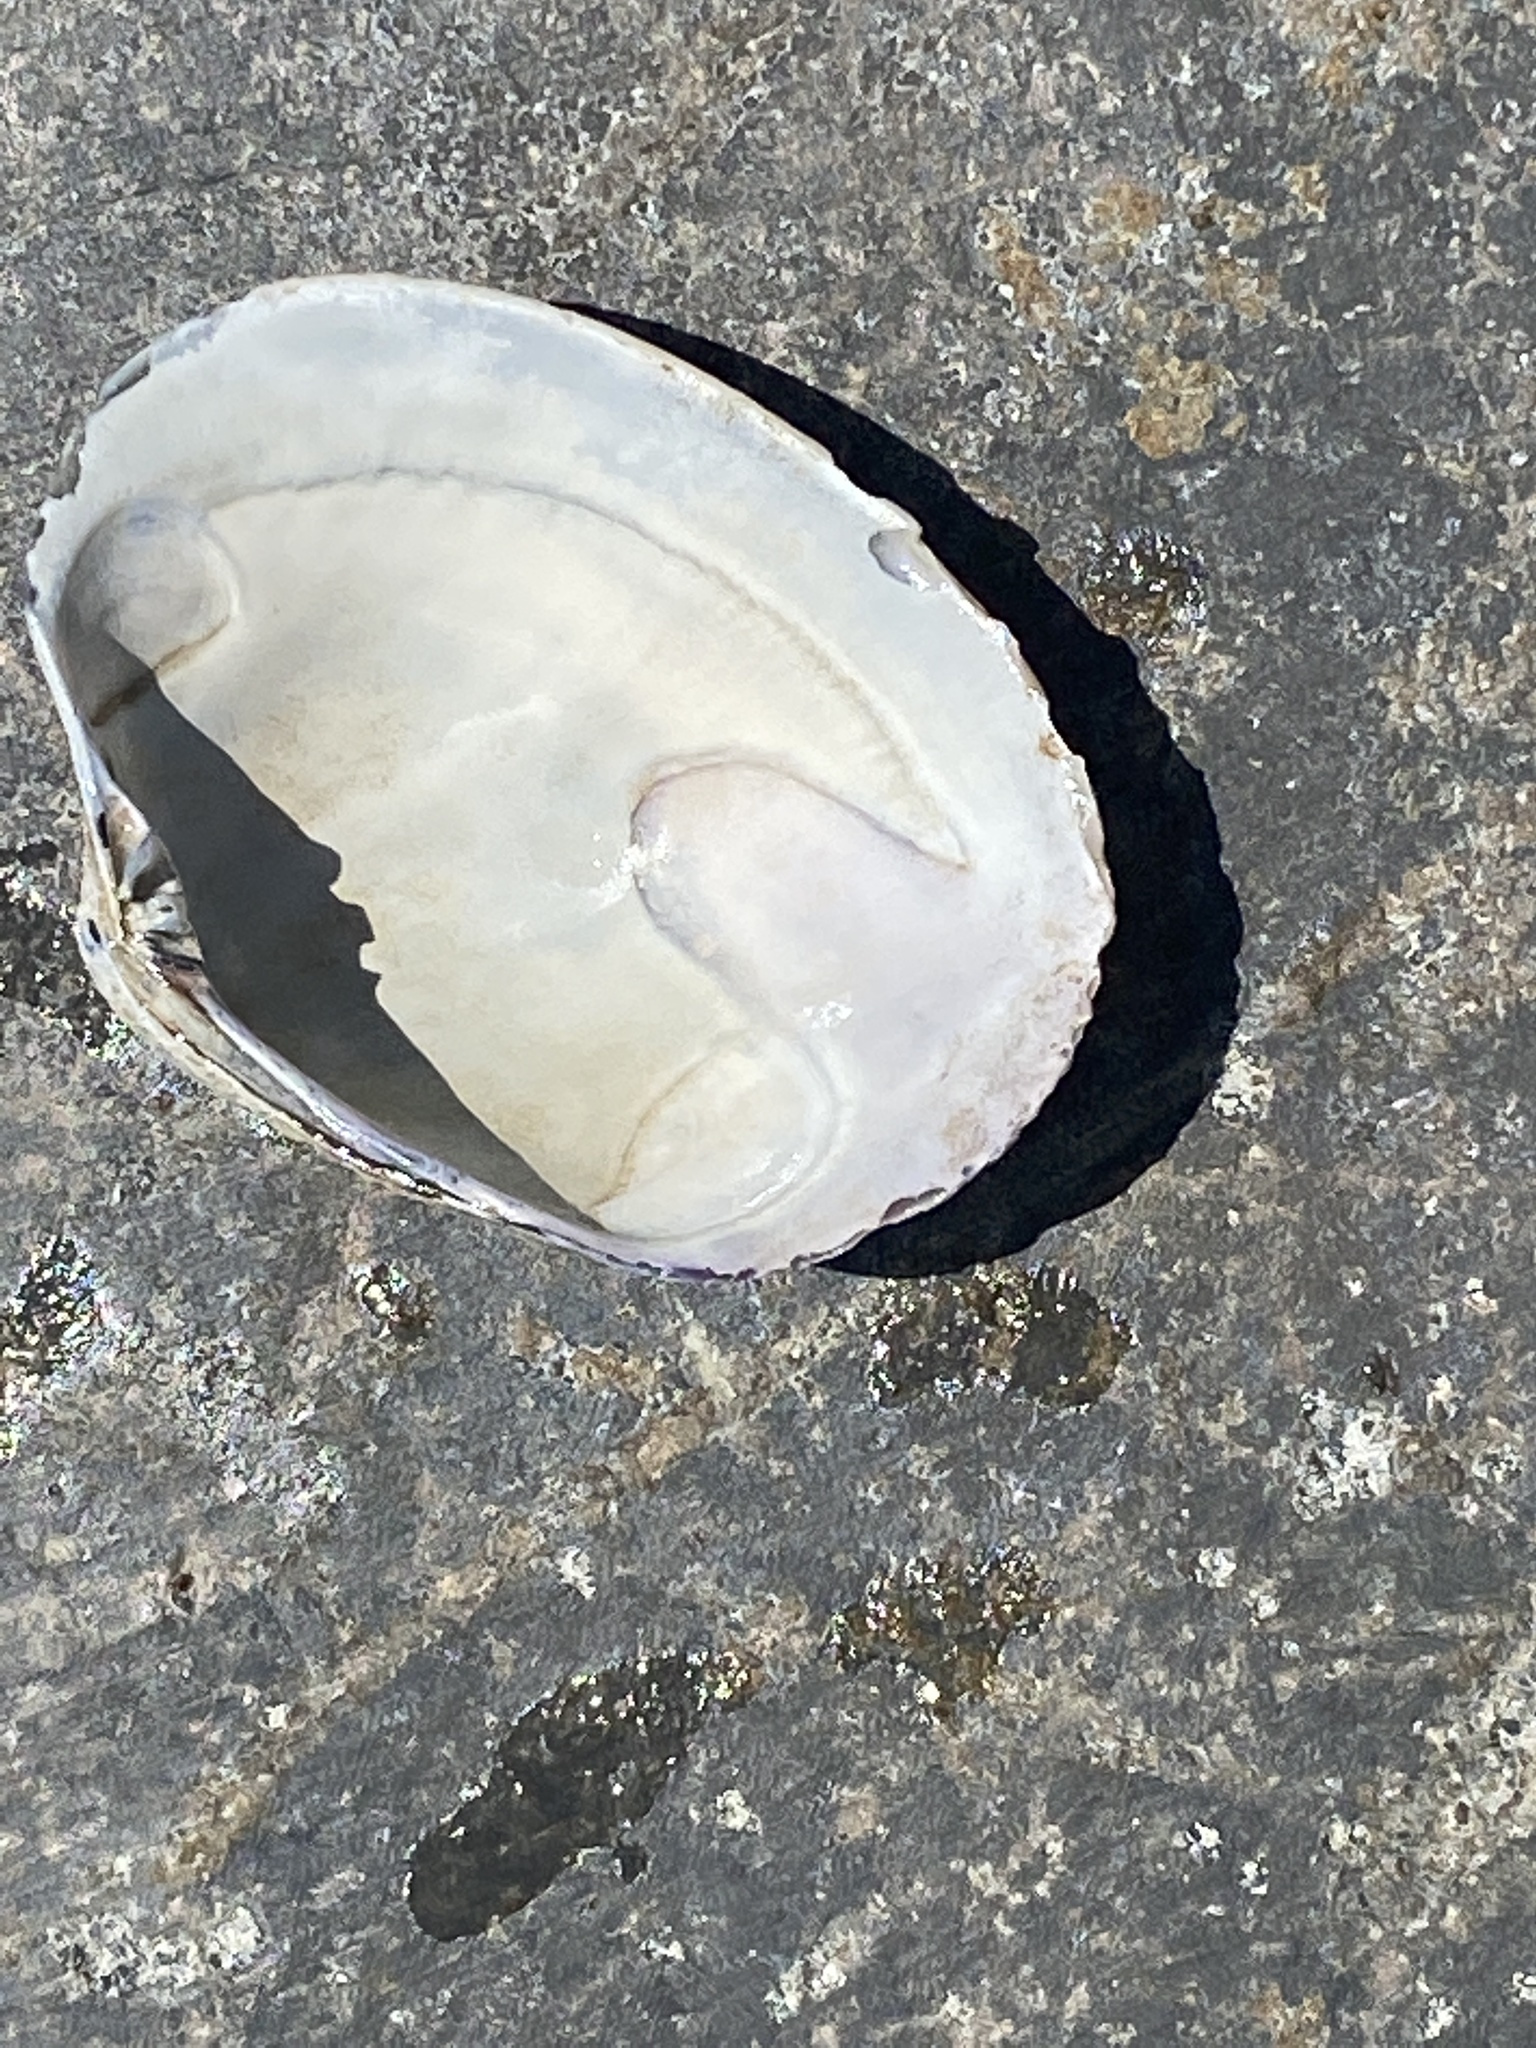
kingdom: Animalia
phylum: Mollusca
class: Bivalvia
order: Venerida
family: Veneridae
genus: Ruditapes
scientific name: Ruditapes philippinarum
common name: Manila clam
